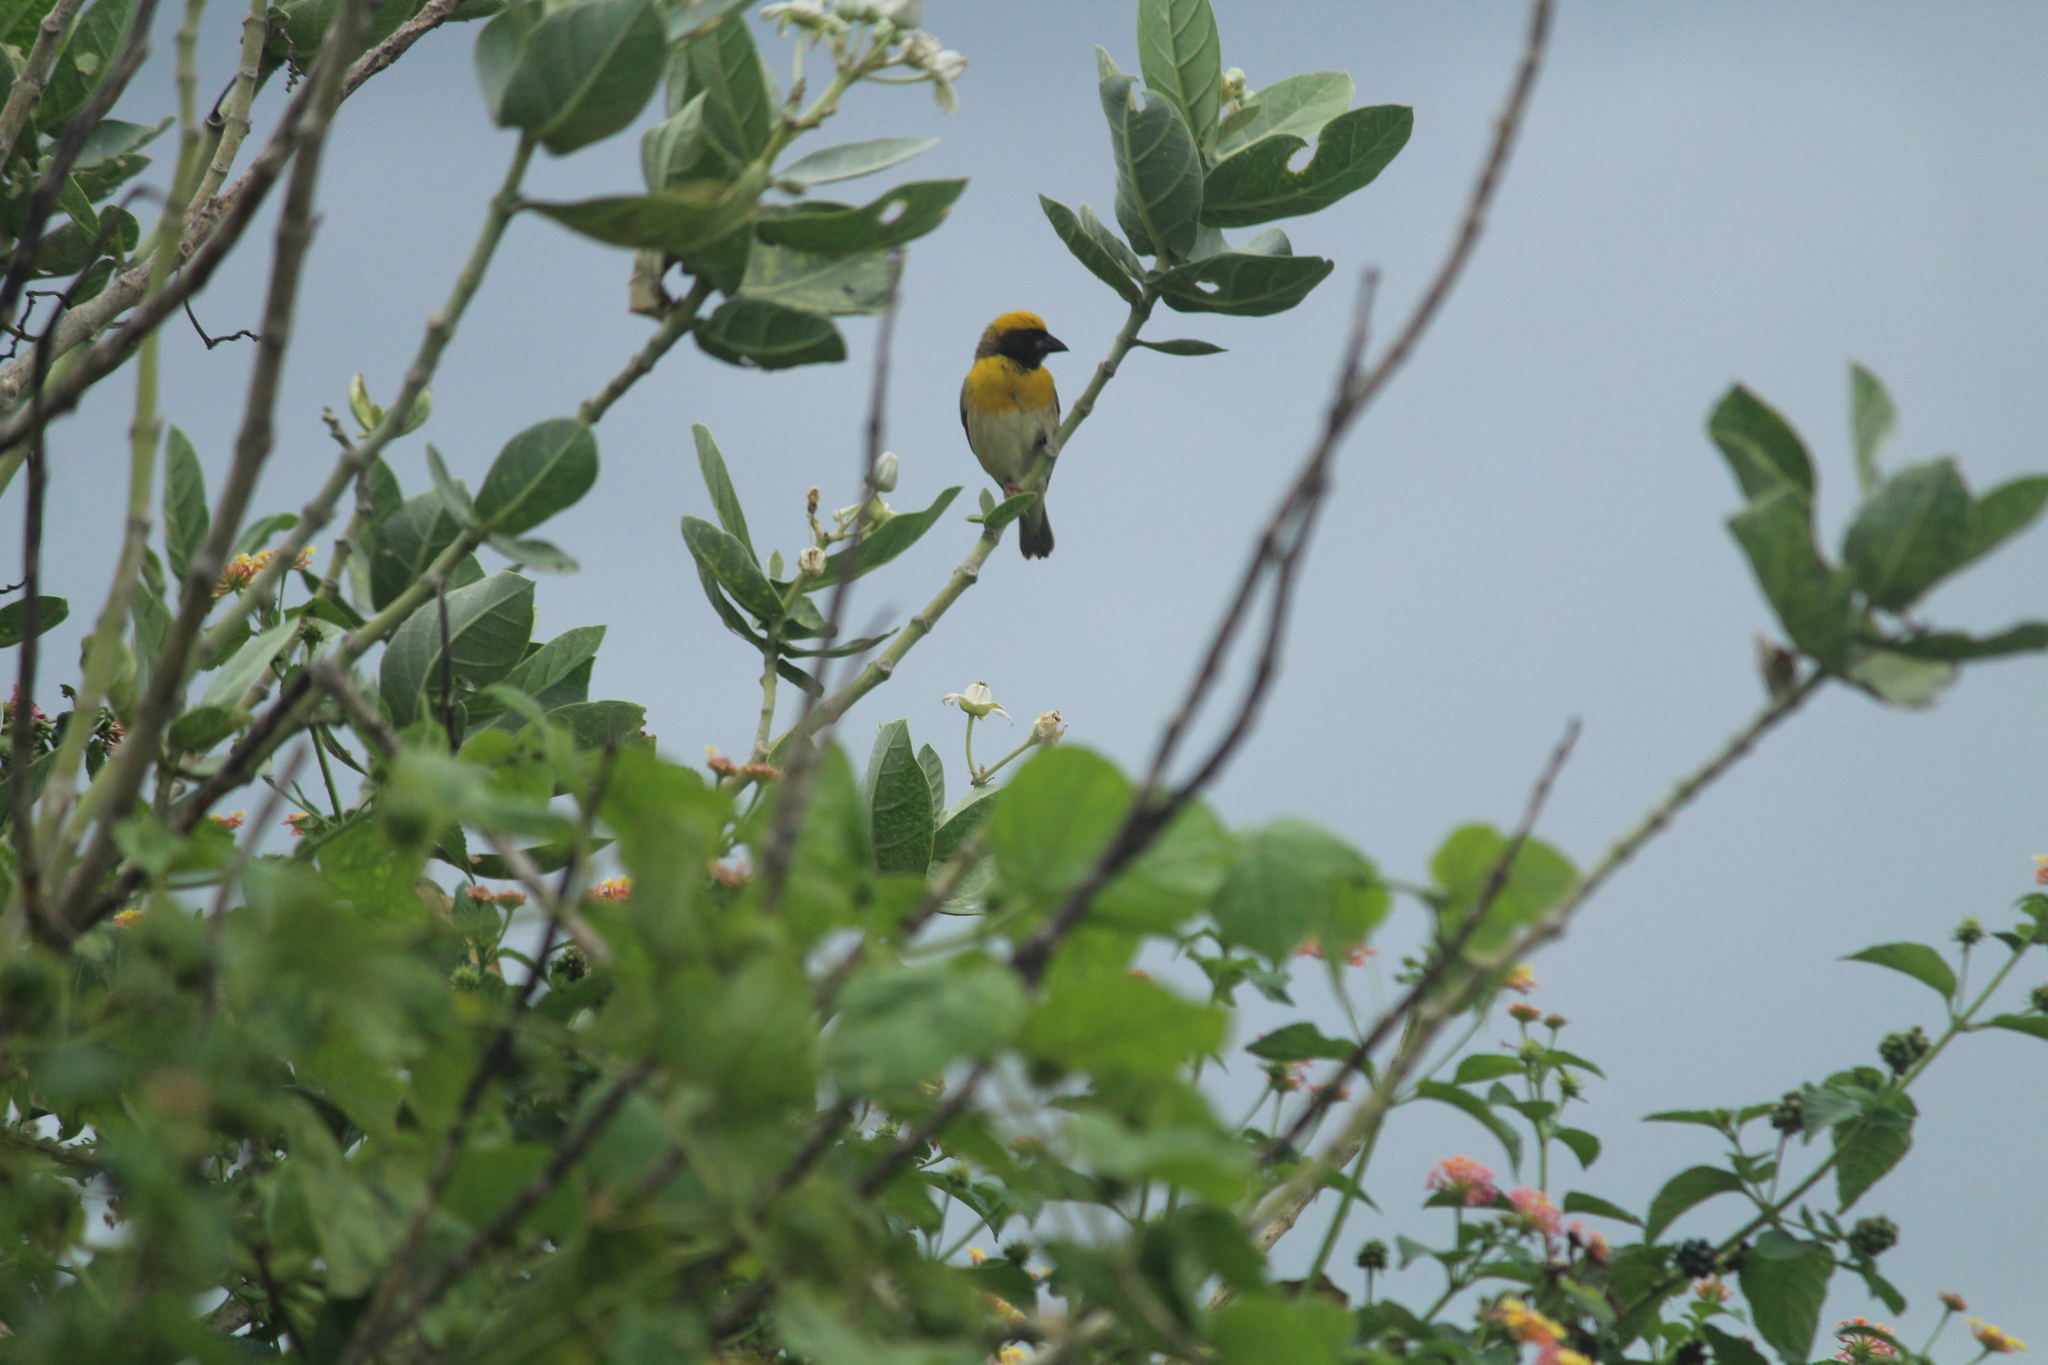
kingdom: Animalia
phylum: Chordata
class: Aves
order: Passeriformes
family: Ploceidae
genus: Ploceus
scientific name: Ploceus philippinus
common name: Baya weaver
